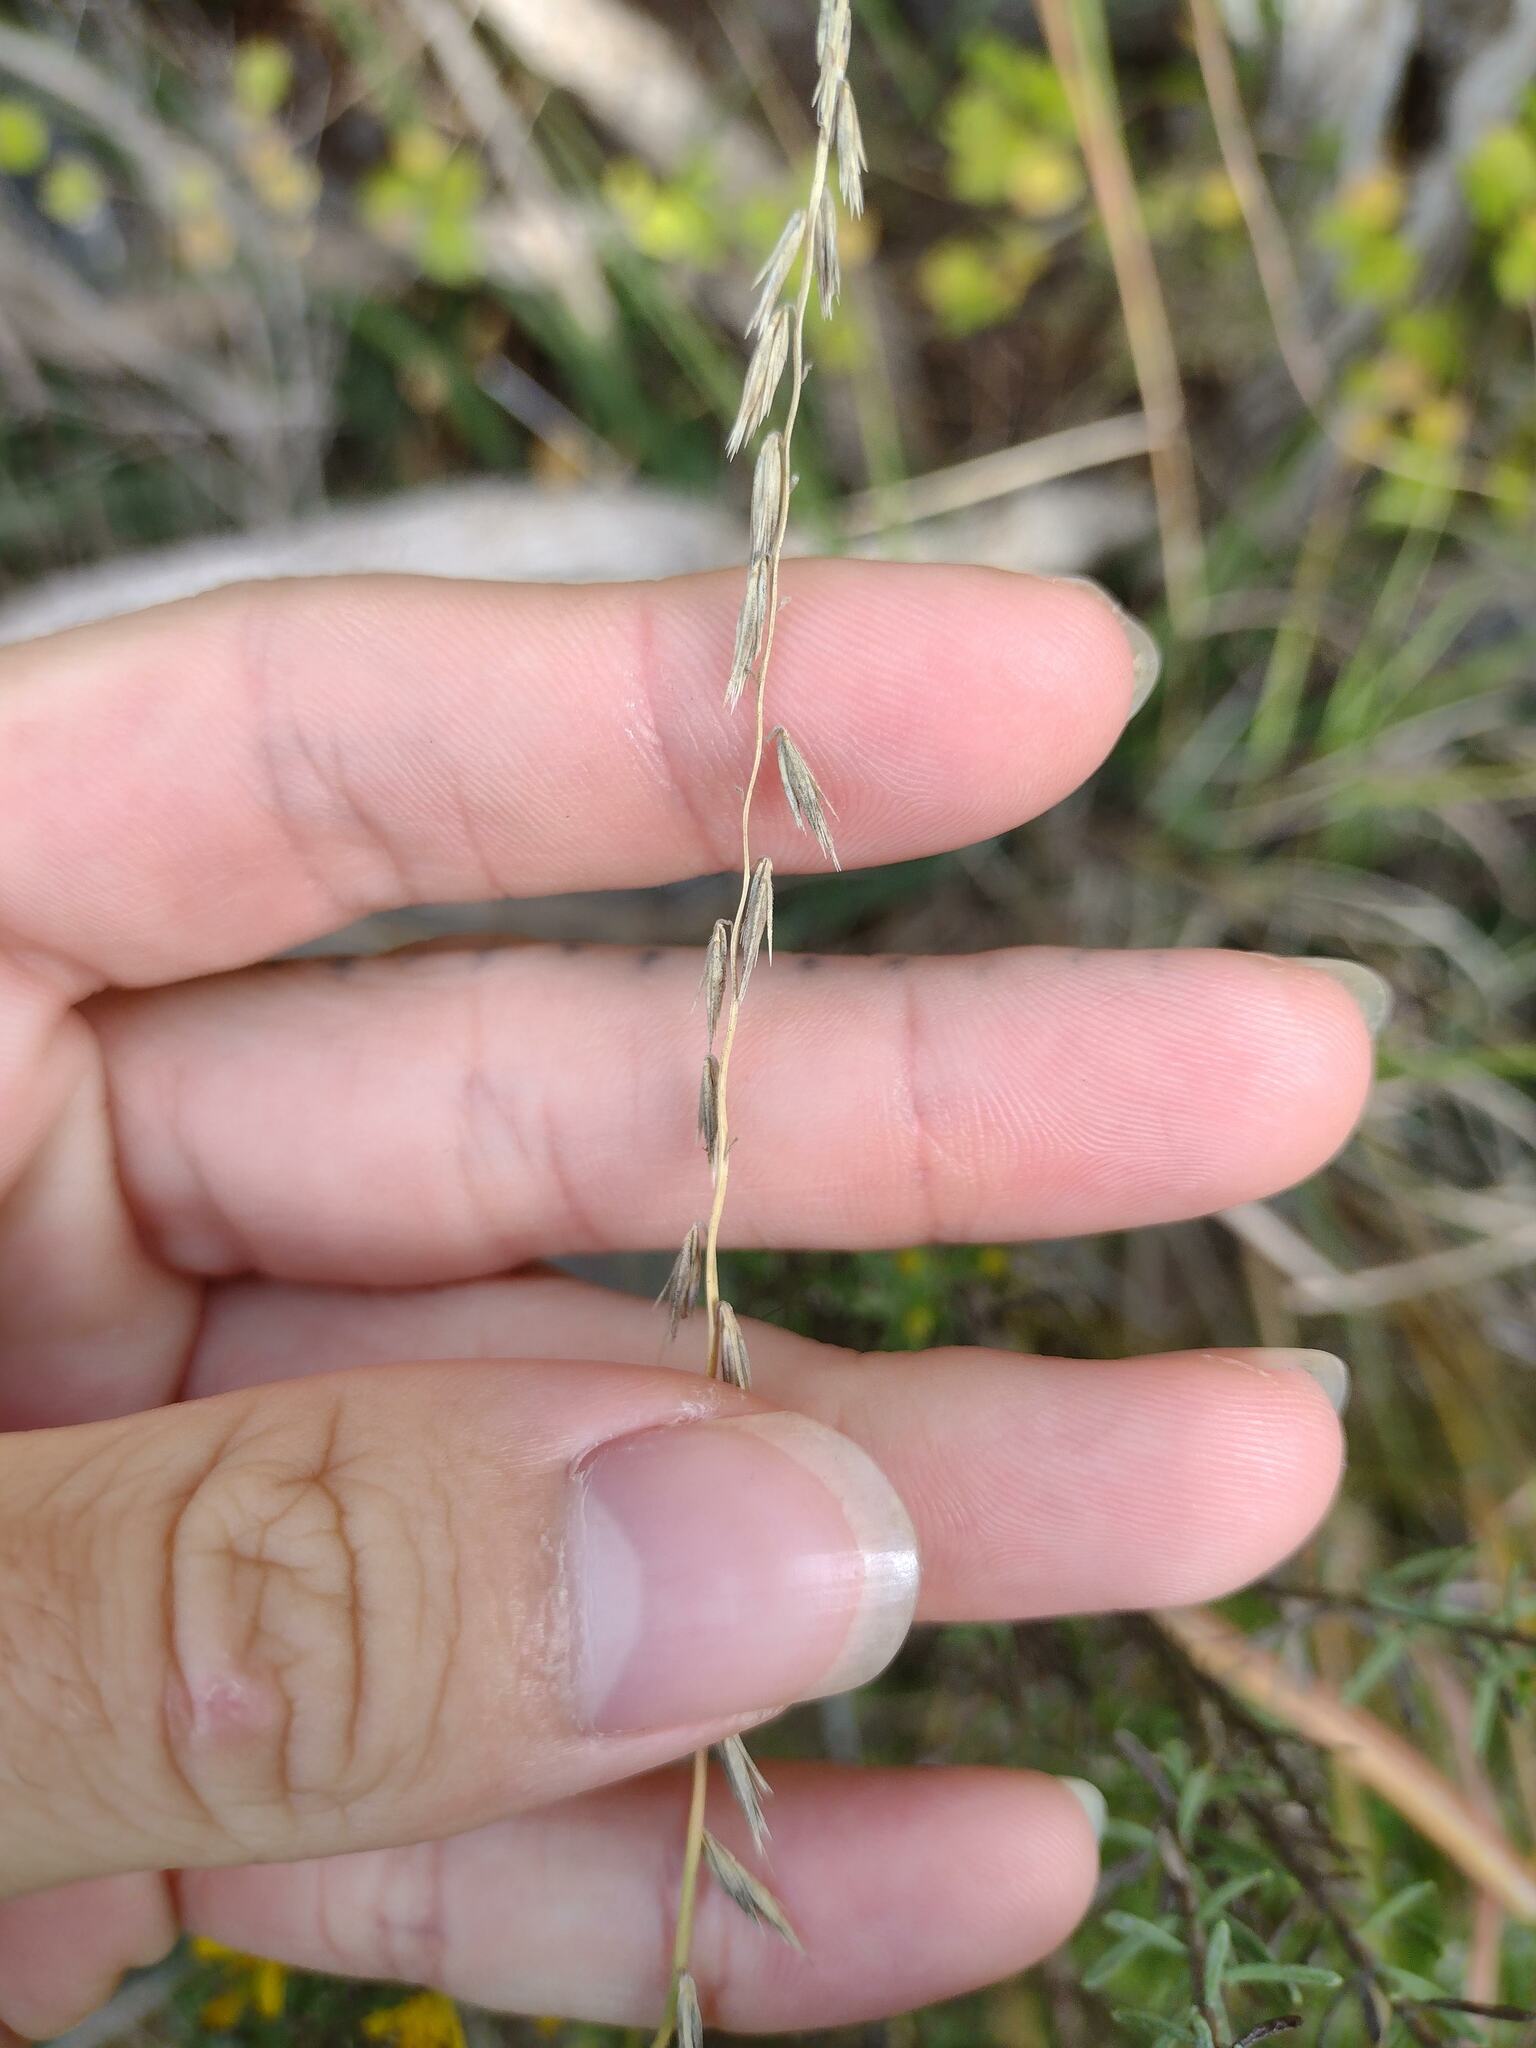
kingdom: Plantae
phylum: Tracheophyta
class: Liliopsida
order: Poales
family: Poaceae
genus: Bouteloua
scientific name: Bouteloua curtipendula
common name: Side-oats grama
